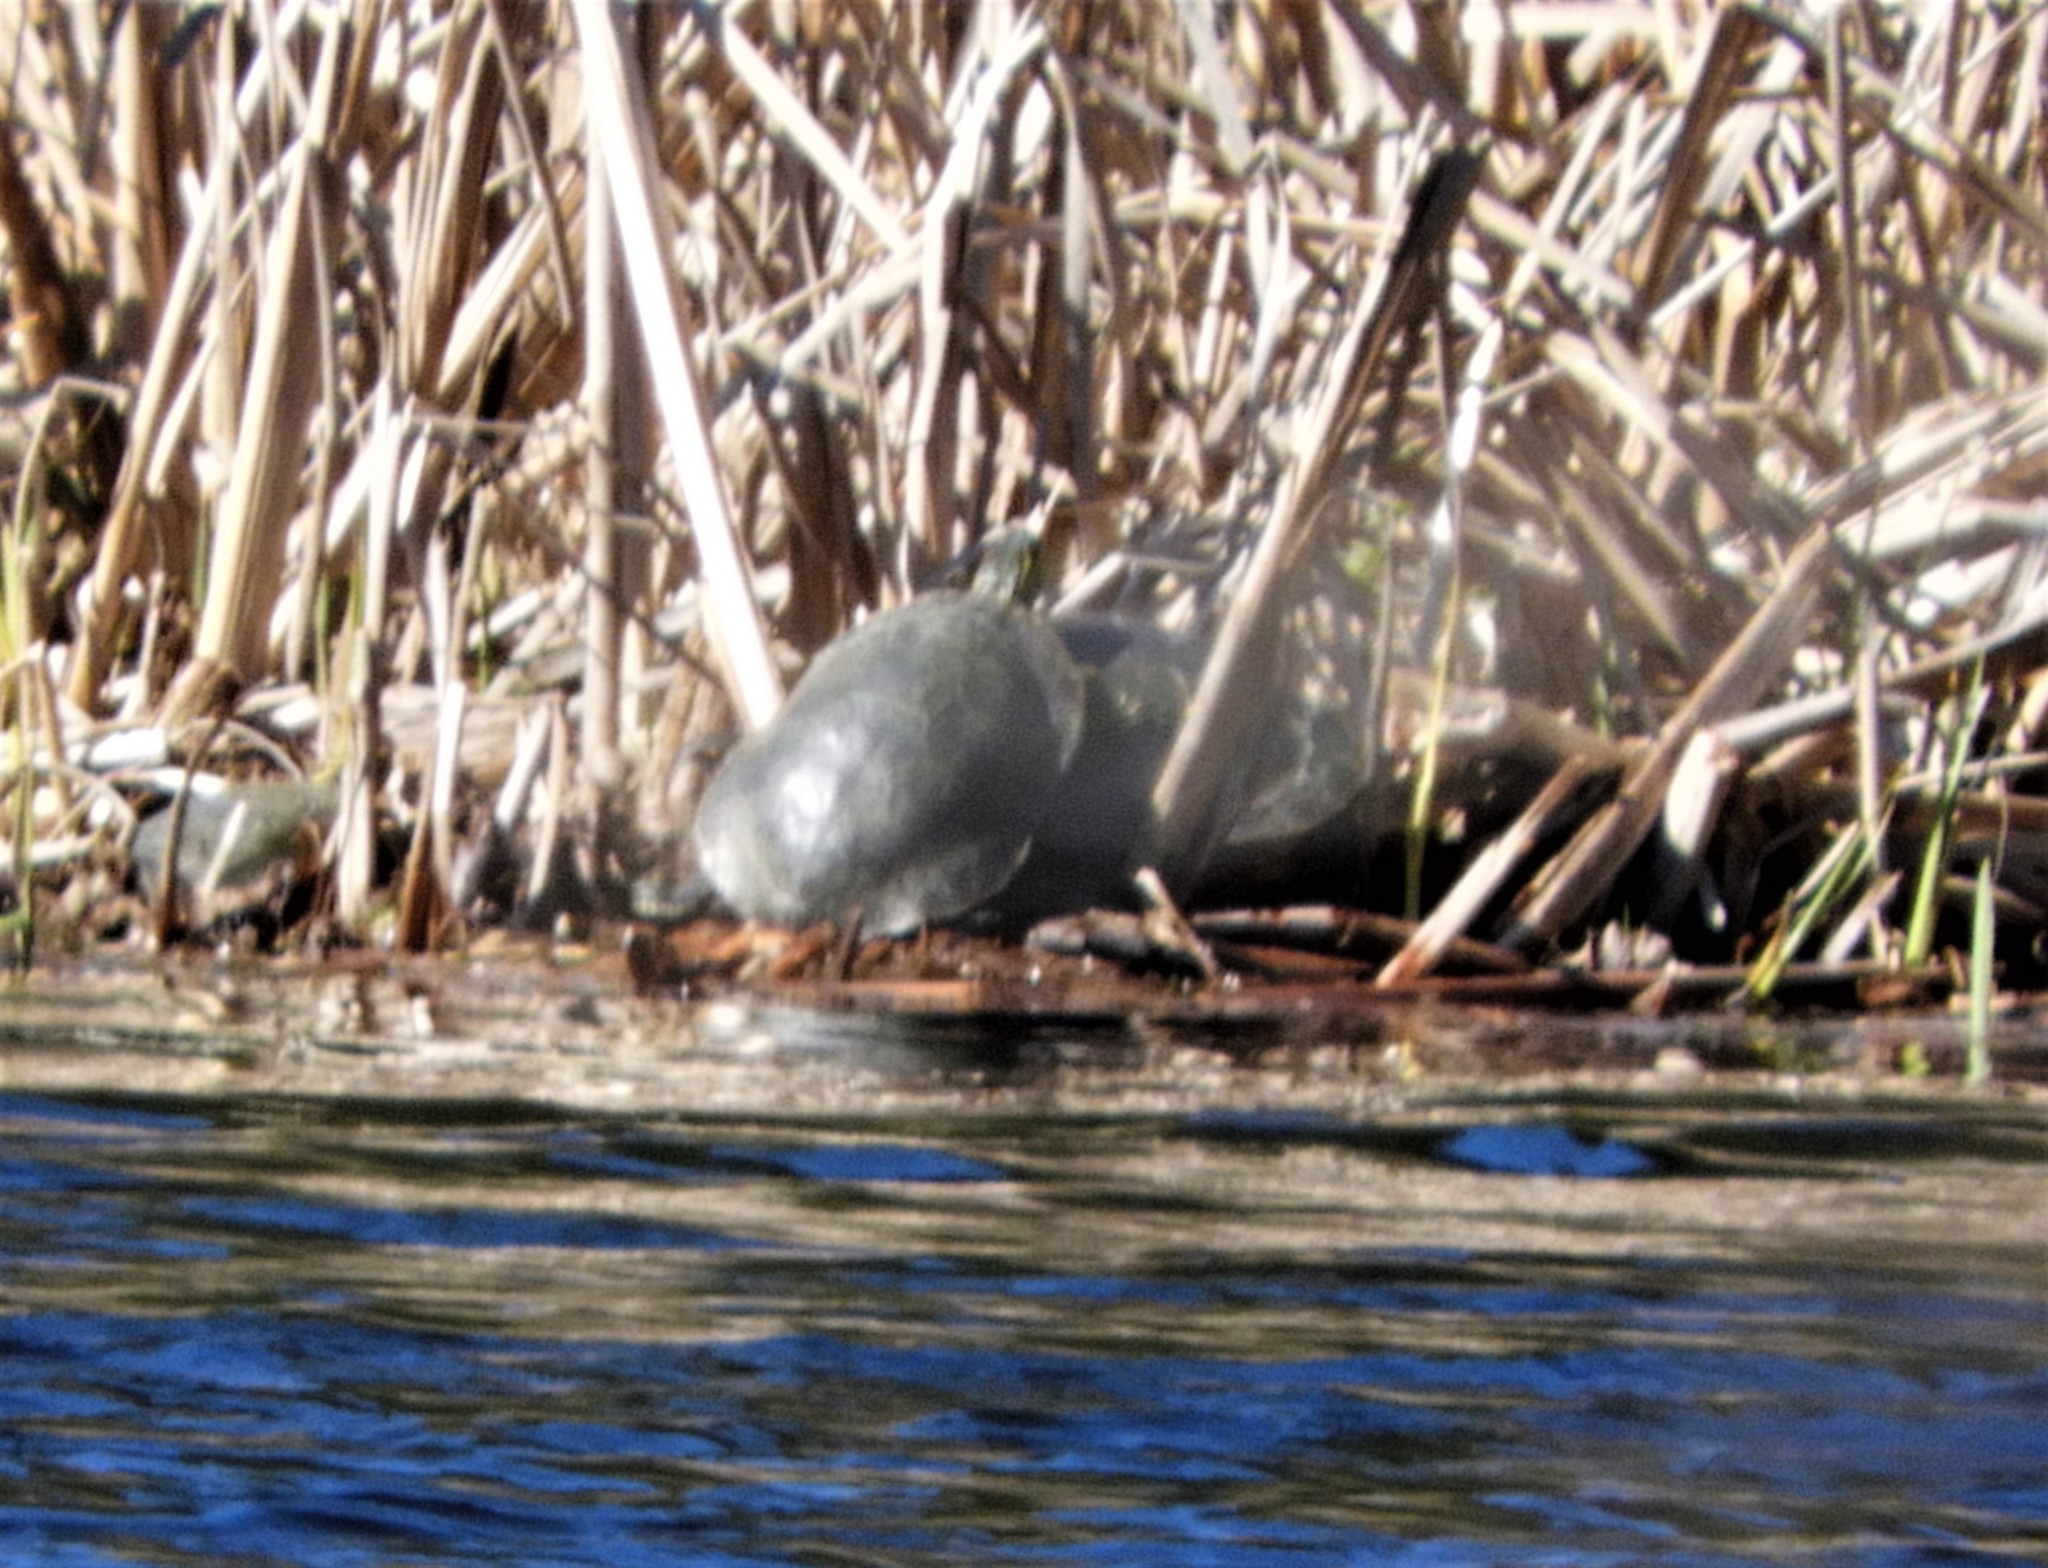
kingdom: Animalia
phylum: Chordata
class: Testudines
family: Emydidae
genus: Chrysemys
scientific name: Chrysemys picta
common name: Painted turtle
